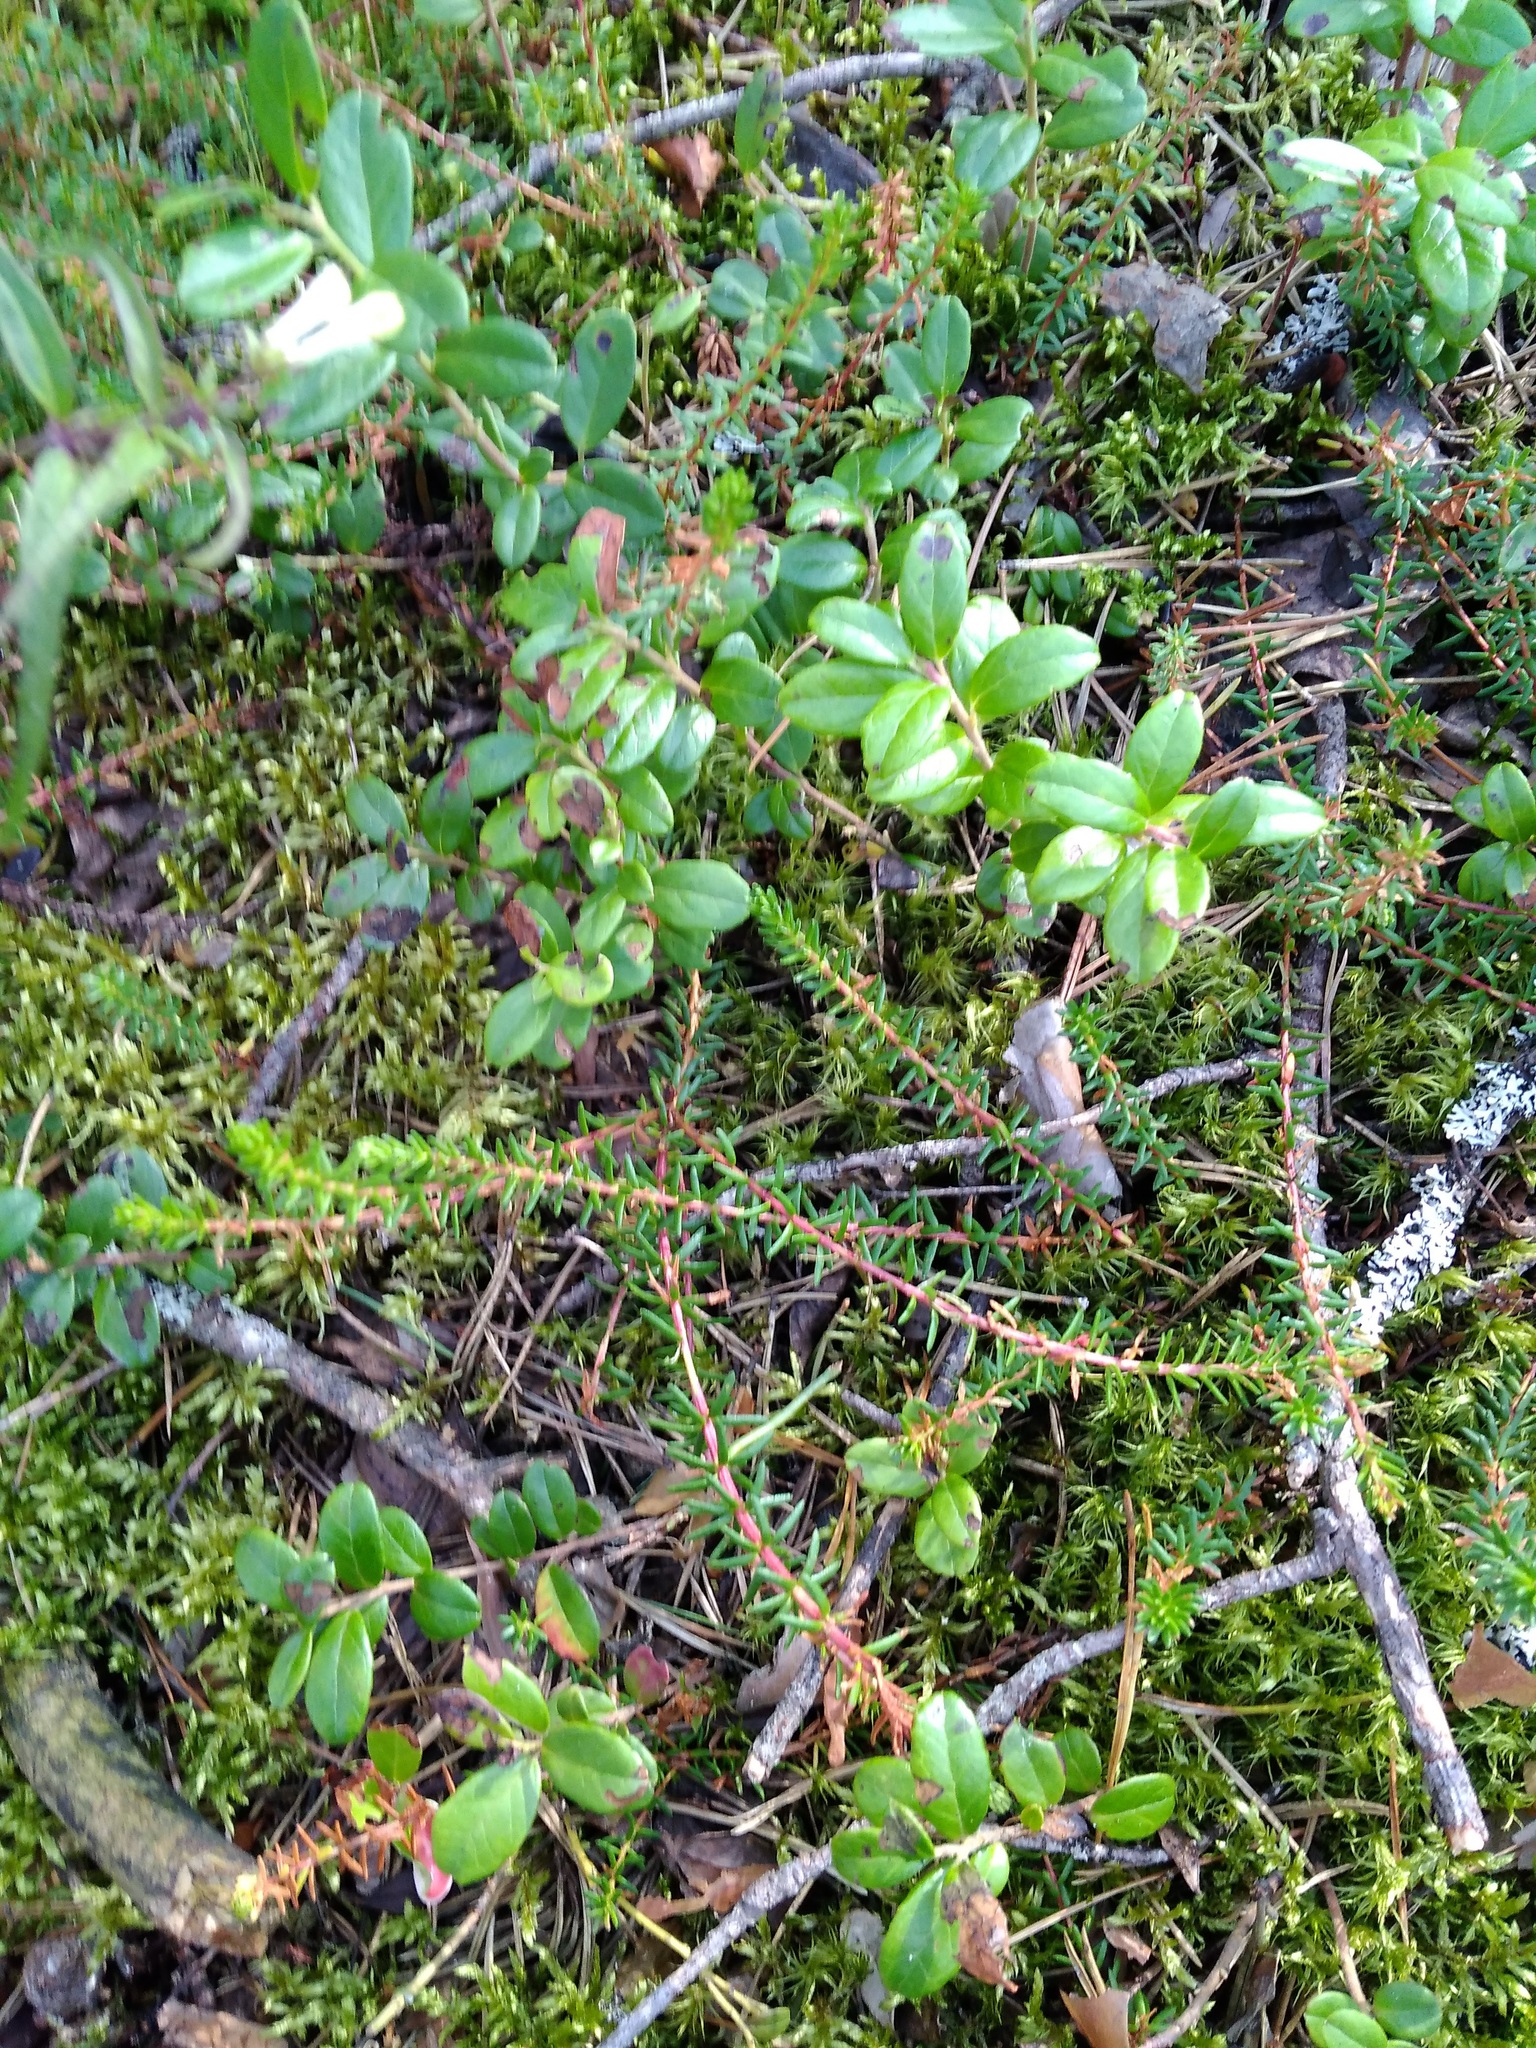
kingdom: Plantae
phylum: Tracheophyta
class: Magnoliopsida
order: Ericales
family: Ericaceae
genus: Empetrum
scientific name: Empetrum nigrum
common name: Black crowberry
